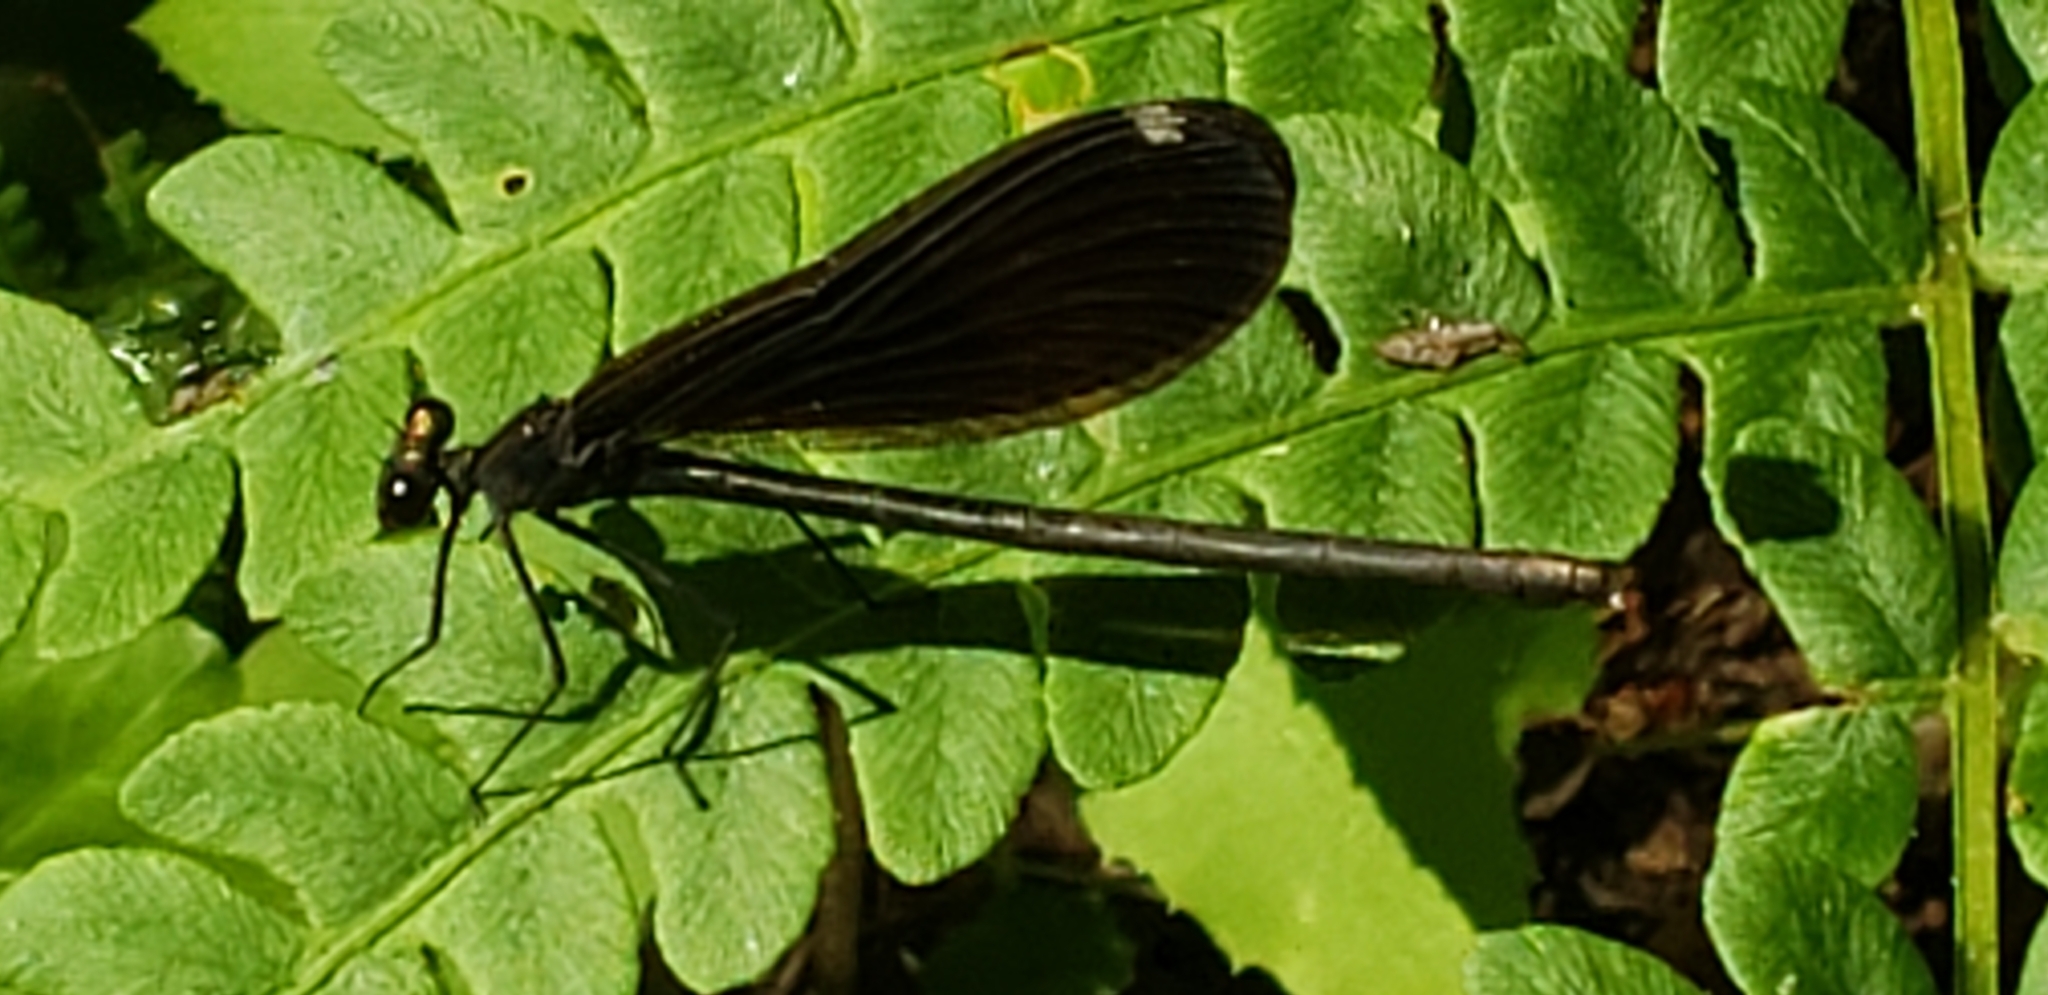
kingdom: Animalia
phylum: Arthropoda
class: Insecta
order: Odonata
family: Calopterygidae
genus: Calopteryx
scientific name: Calopteryx maculata
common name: Ebony jewelwing
